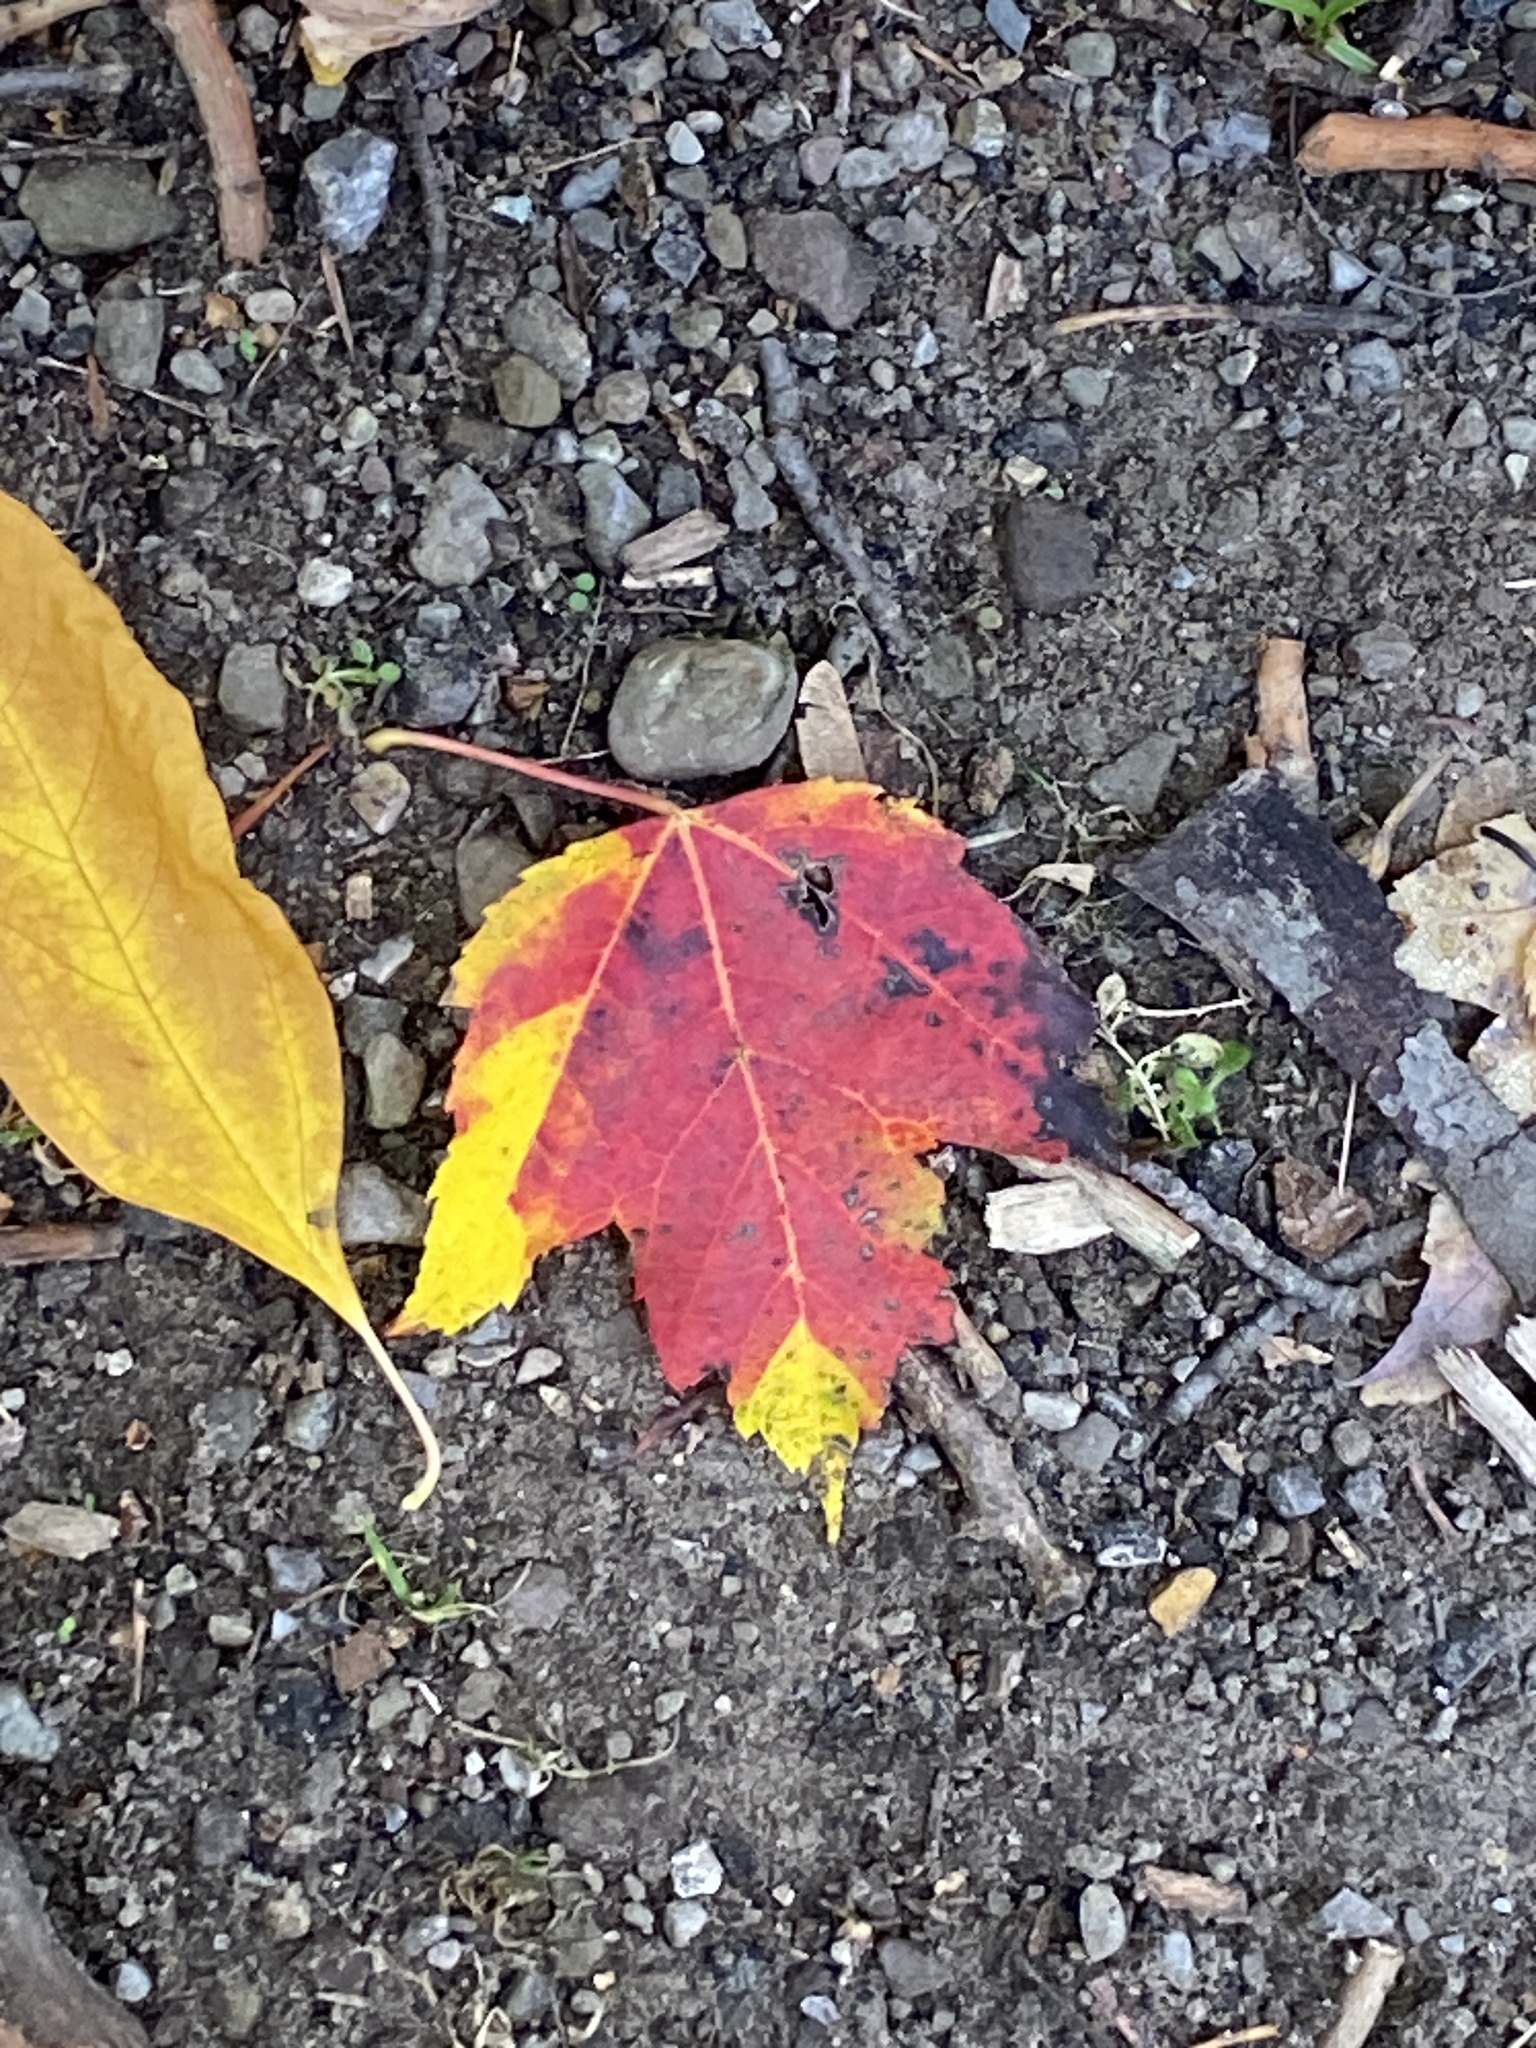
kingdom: Plantae
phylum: Tracheophyta
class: Magnoliopsida
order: Sapindales
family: Sapindaceae
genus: Acer
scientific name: Acer rubrum
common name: Red maple
